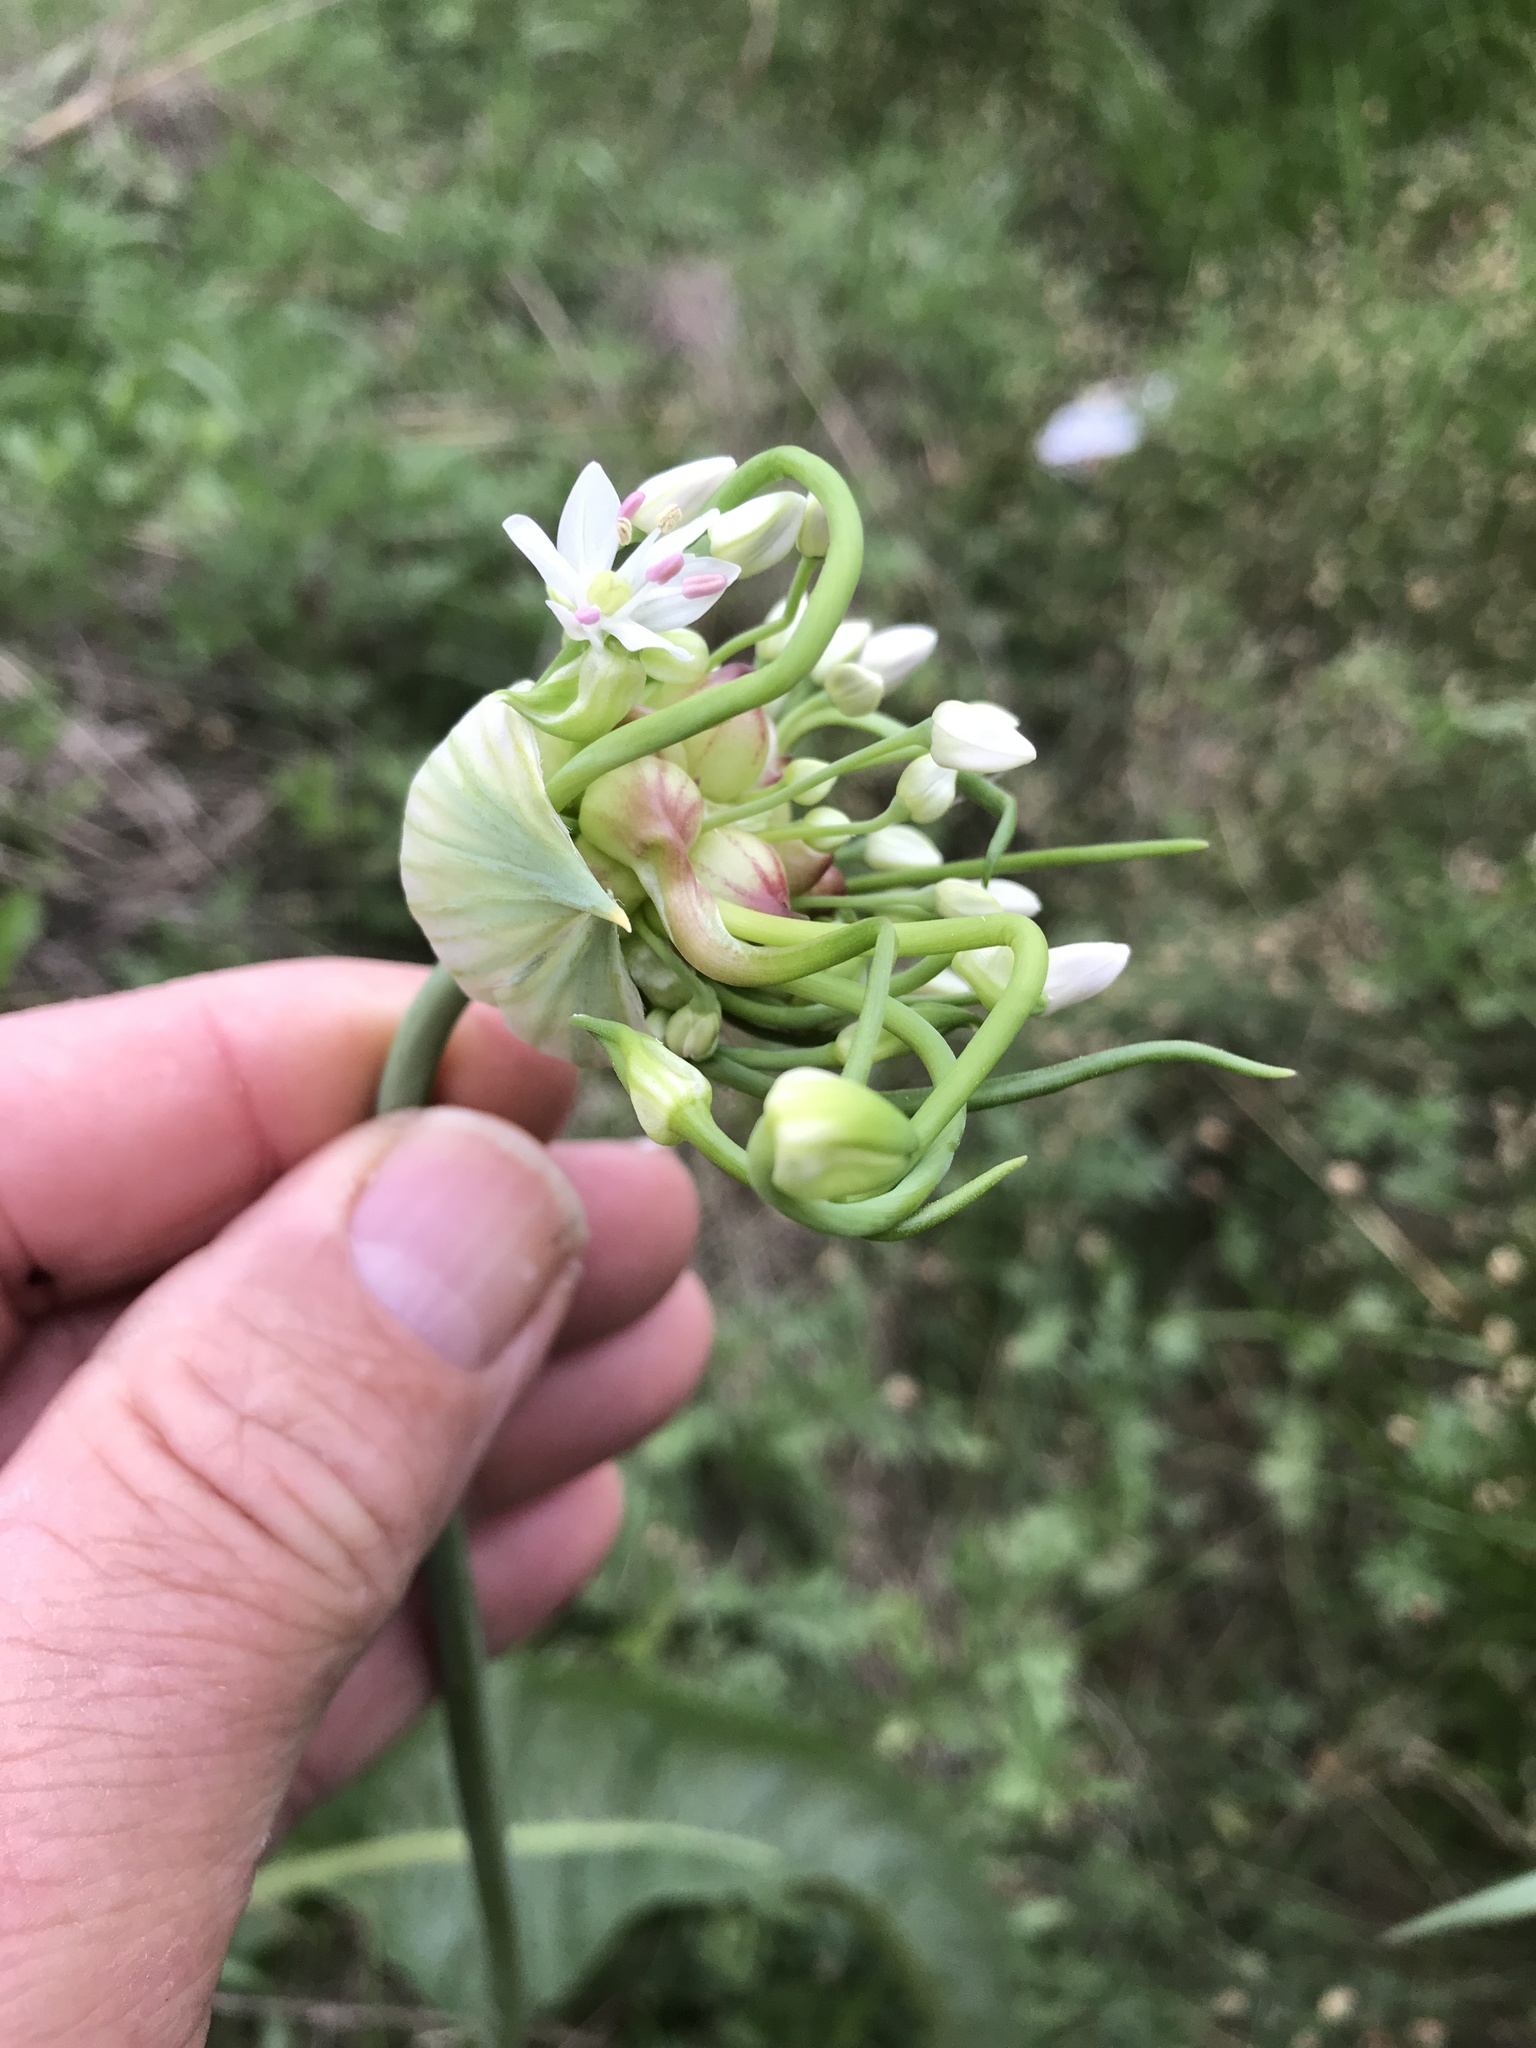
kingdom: Plantae
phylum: Tracheophyta
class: Liliopsida
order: Asparagales
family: Amaryllidaceae
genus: Allium
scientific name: Allium canadense
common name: Meadow garlic
